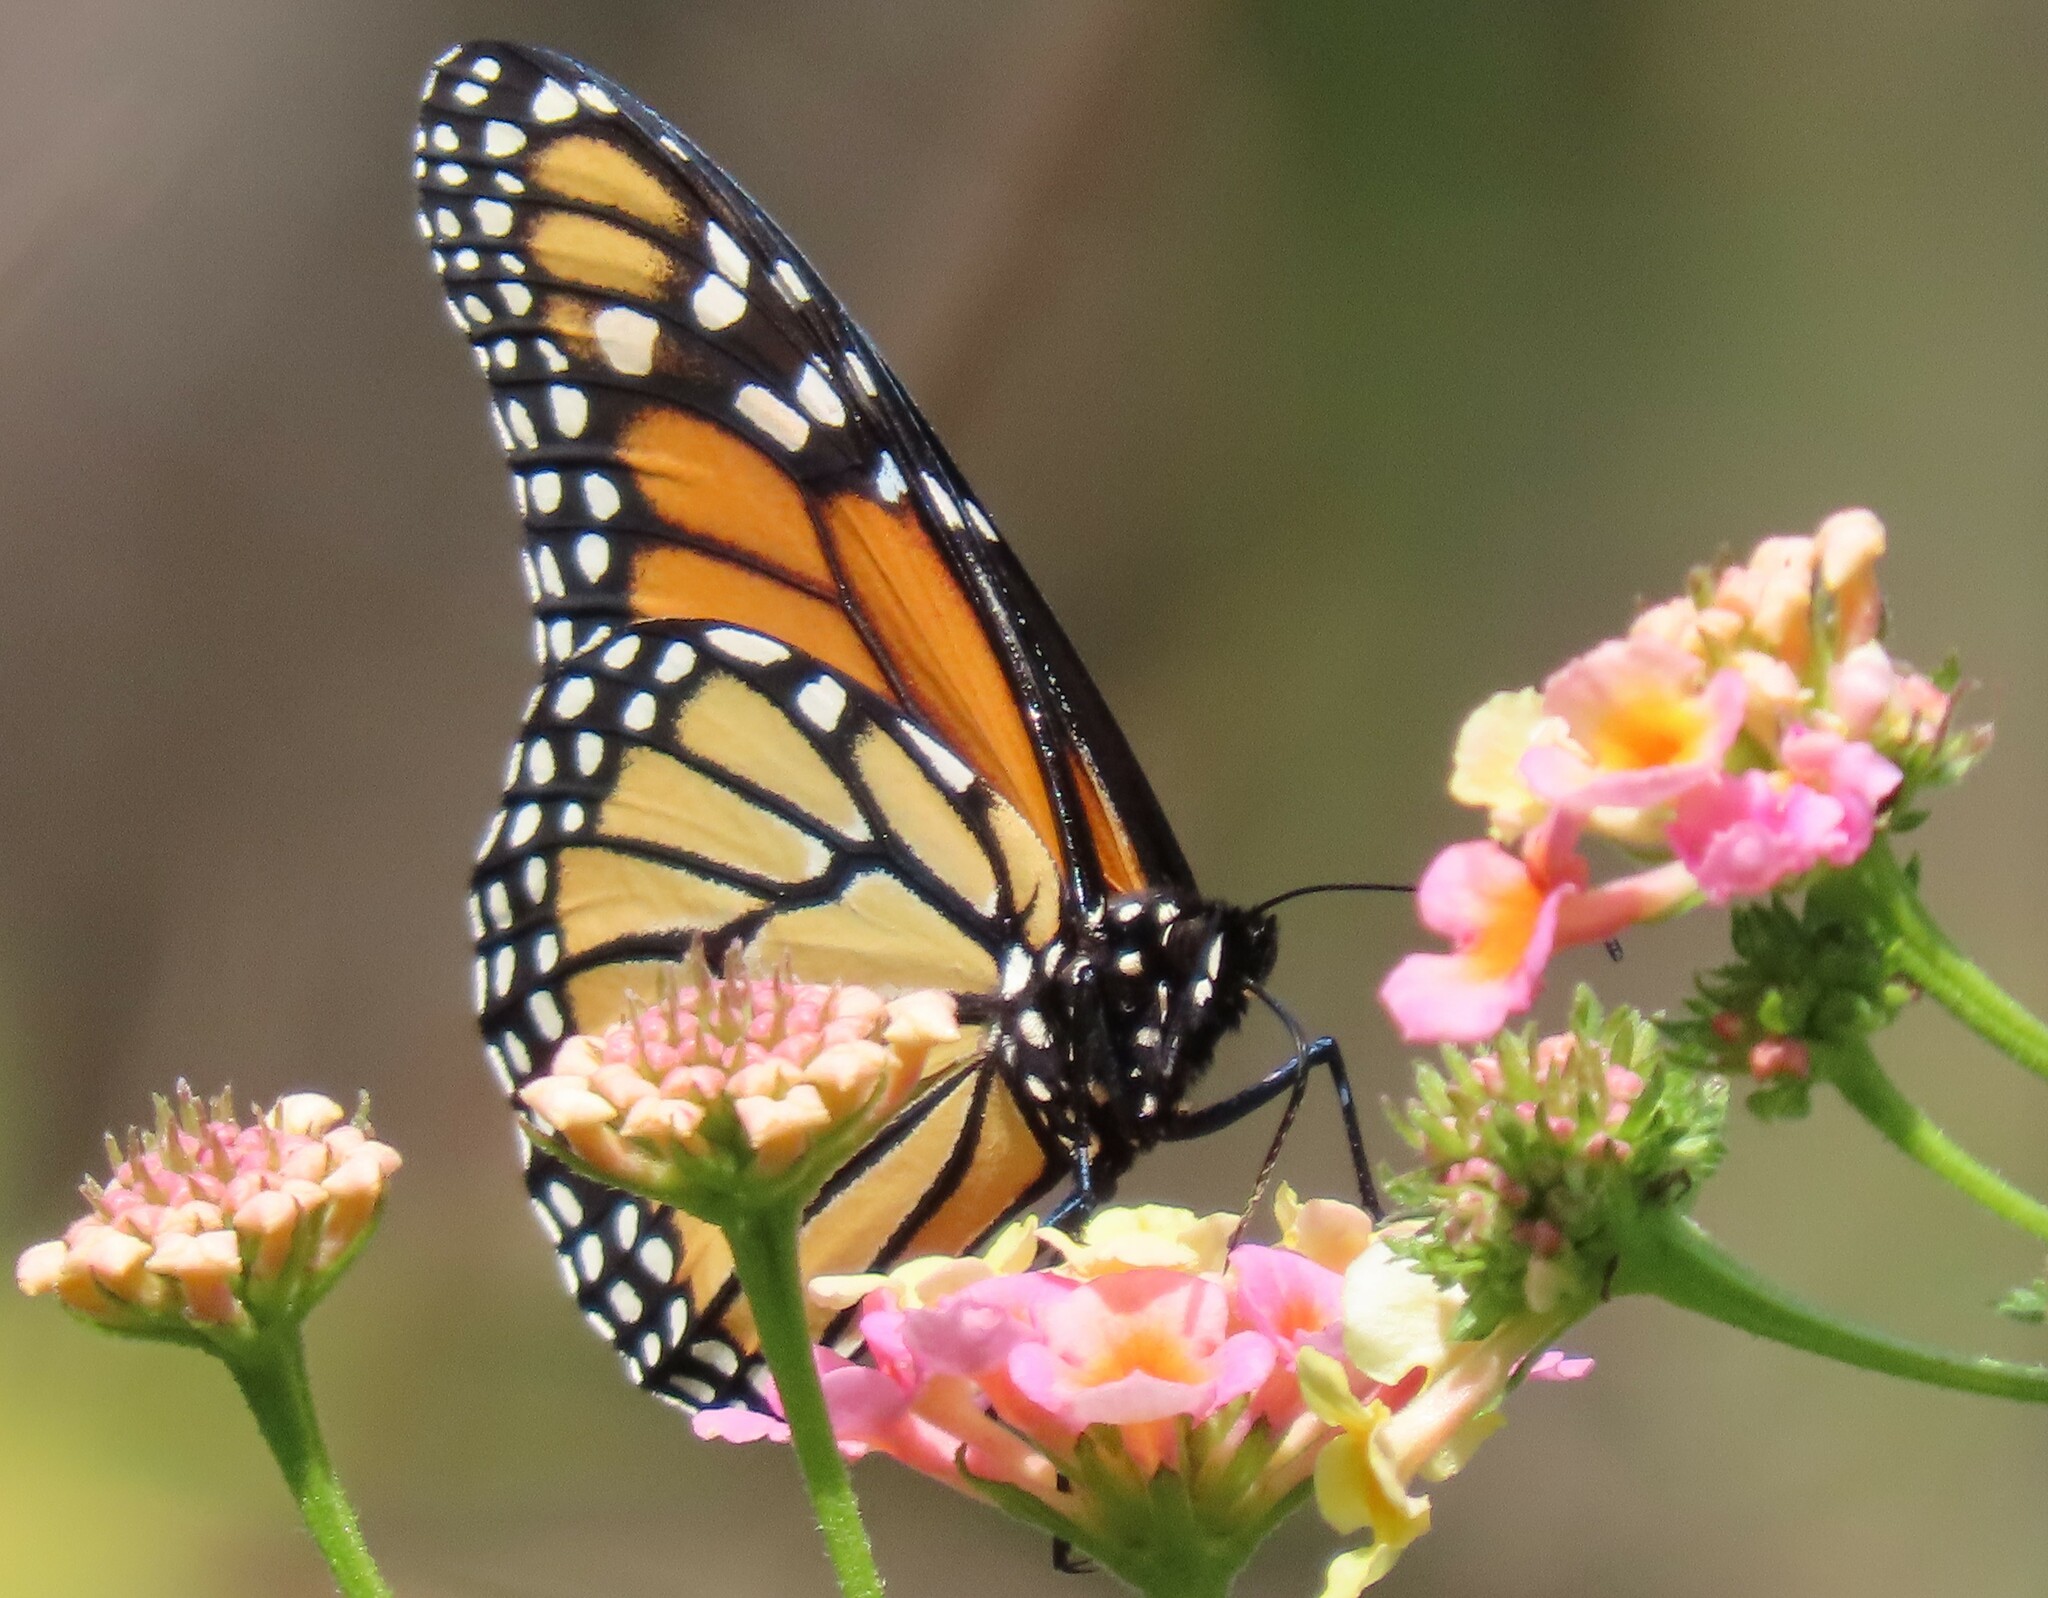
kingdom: Animalia
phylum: Arthropoda
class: Insecta
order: Lepidoptera
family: Nymphalidae
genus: Danaus
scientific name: Danaus plexippus
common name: Monarch
